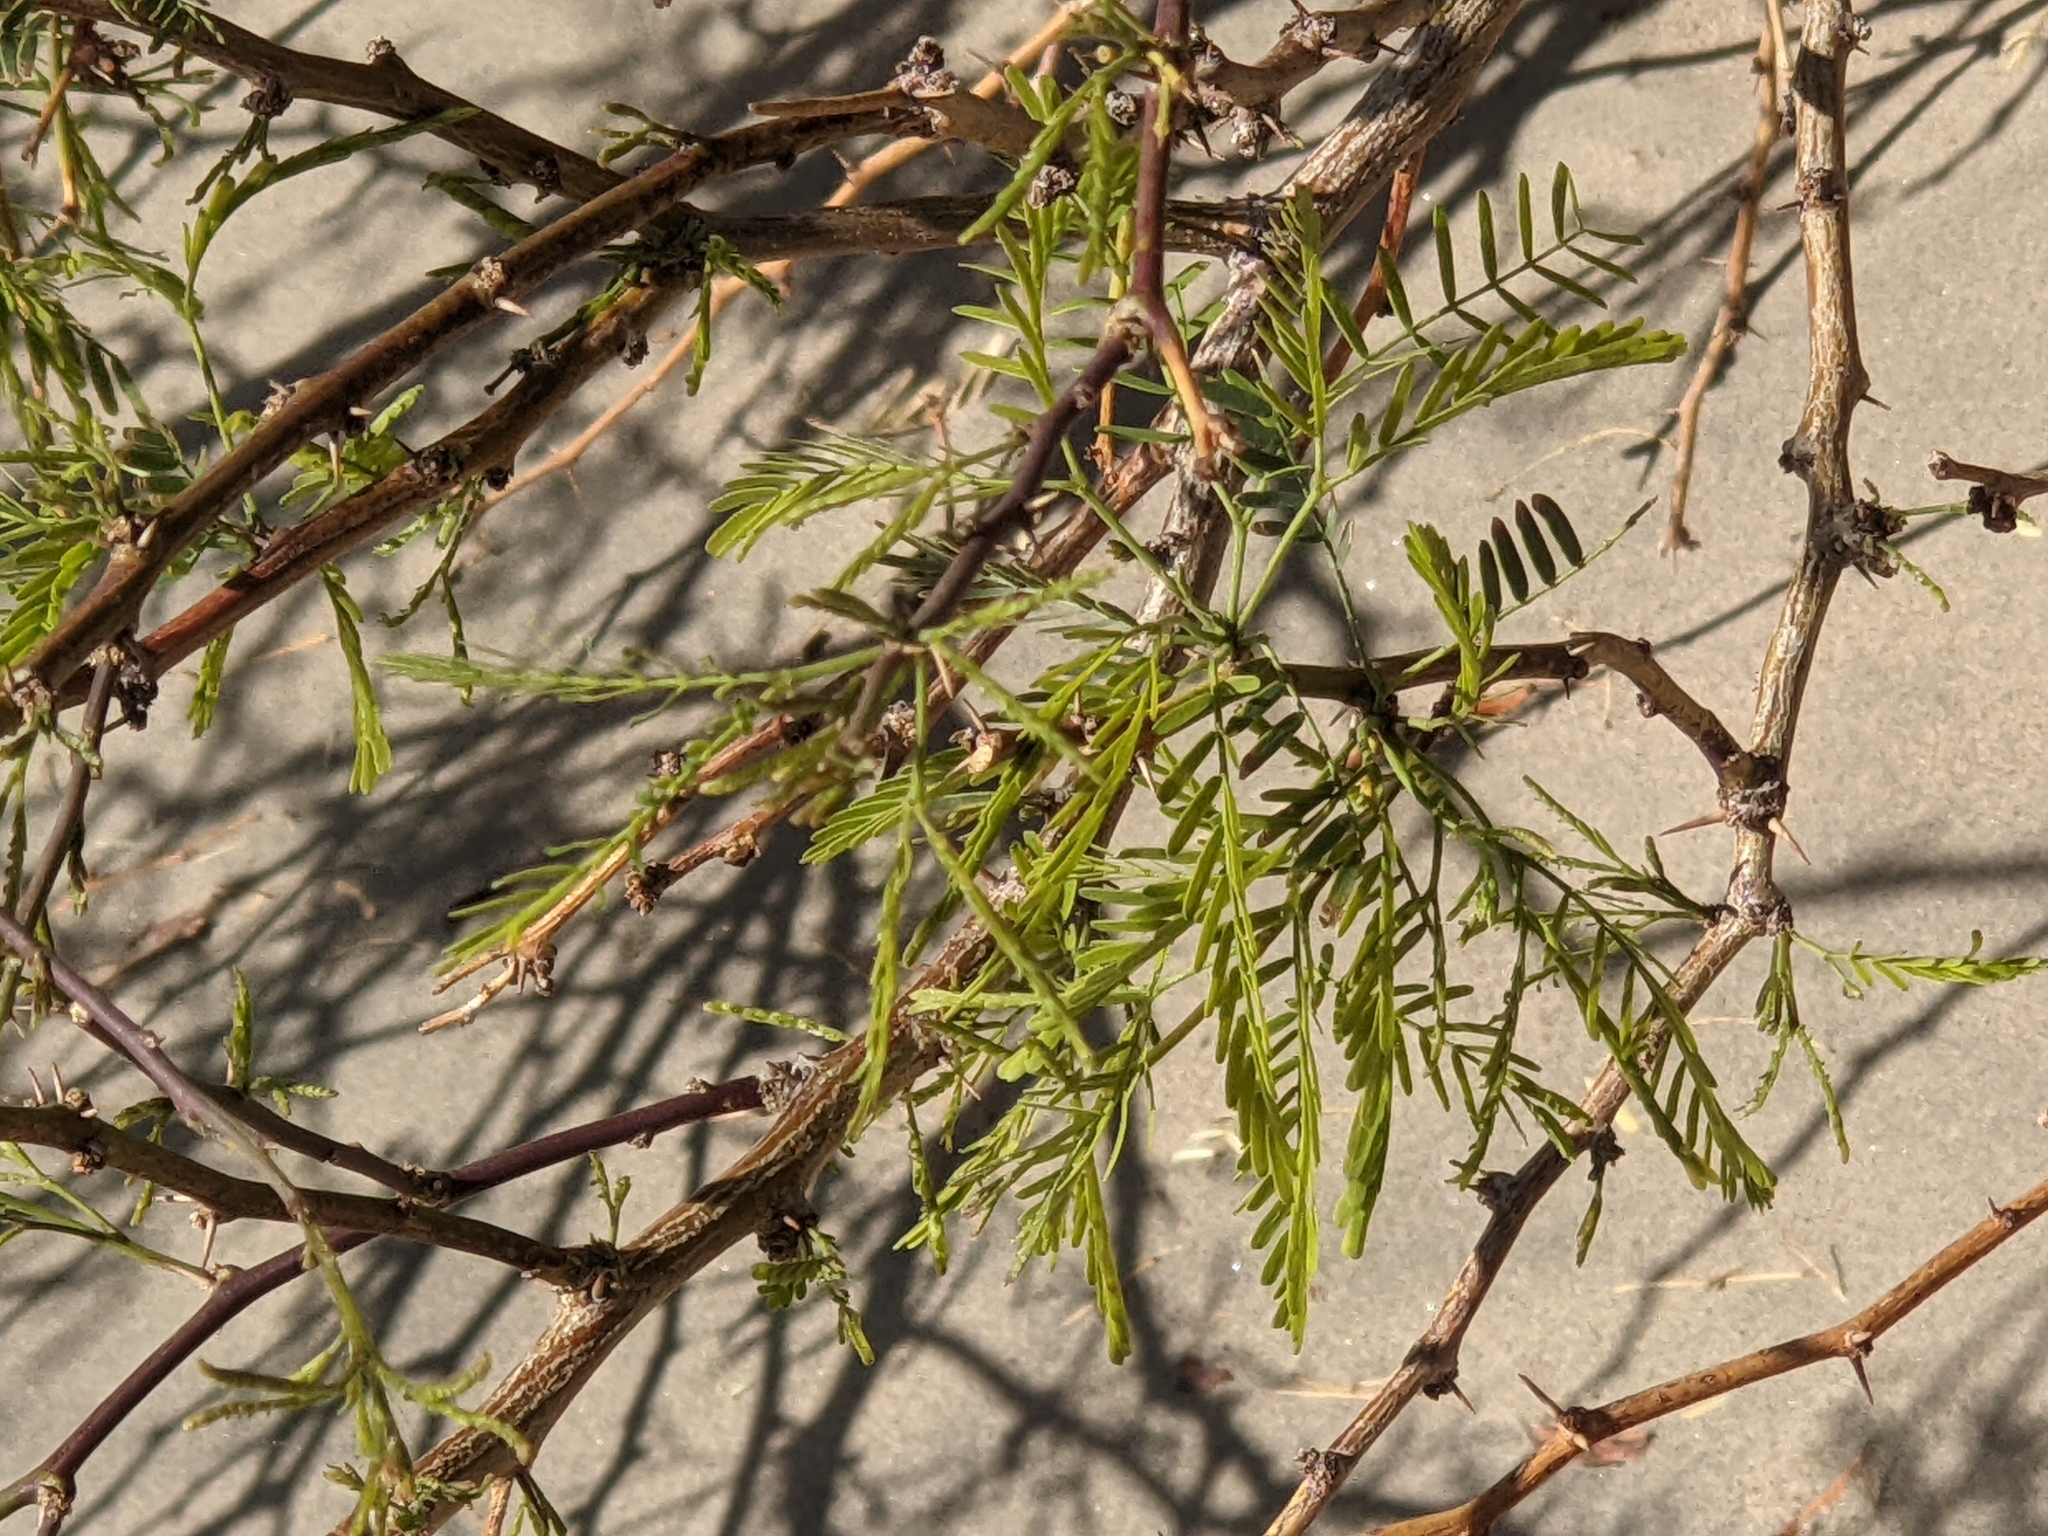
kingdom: Plantae
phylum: Tracheophyta
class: Magnoliopsida
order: Fabales
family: Fabaceae
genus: Prosopis
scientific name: Prosopis pubescens
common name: Screw-bean
